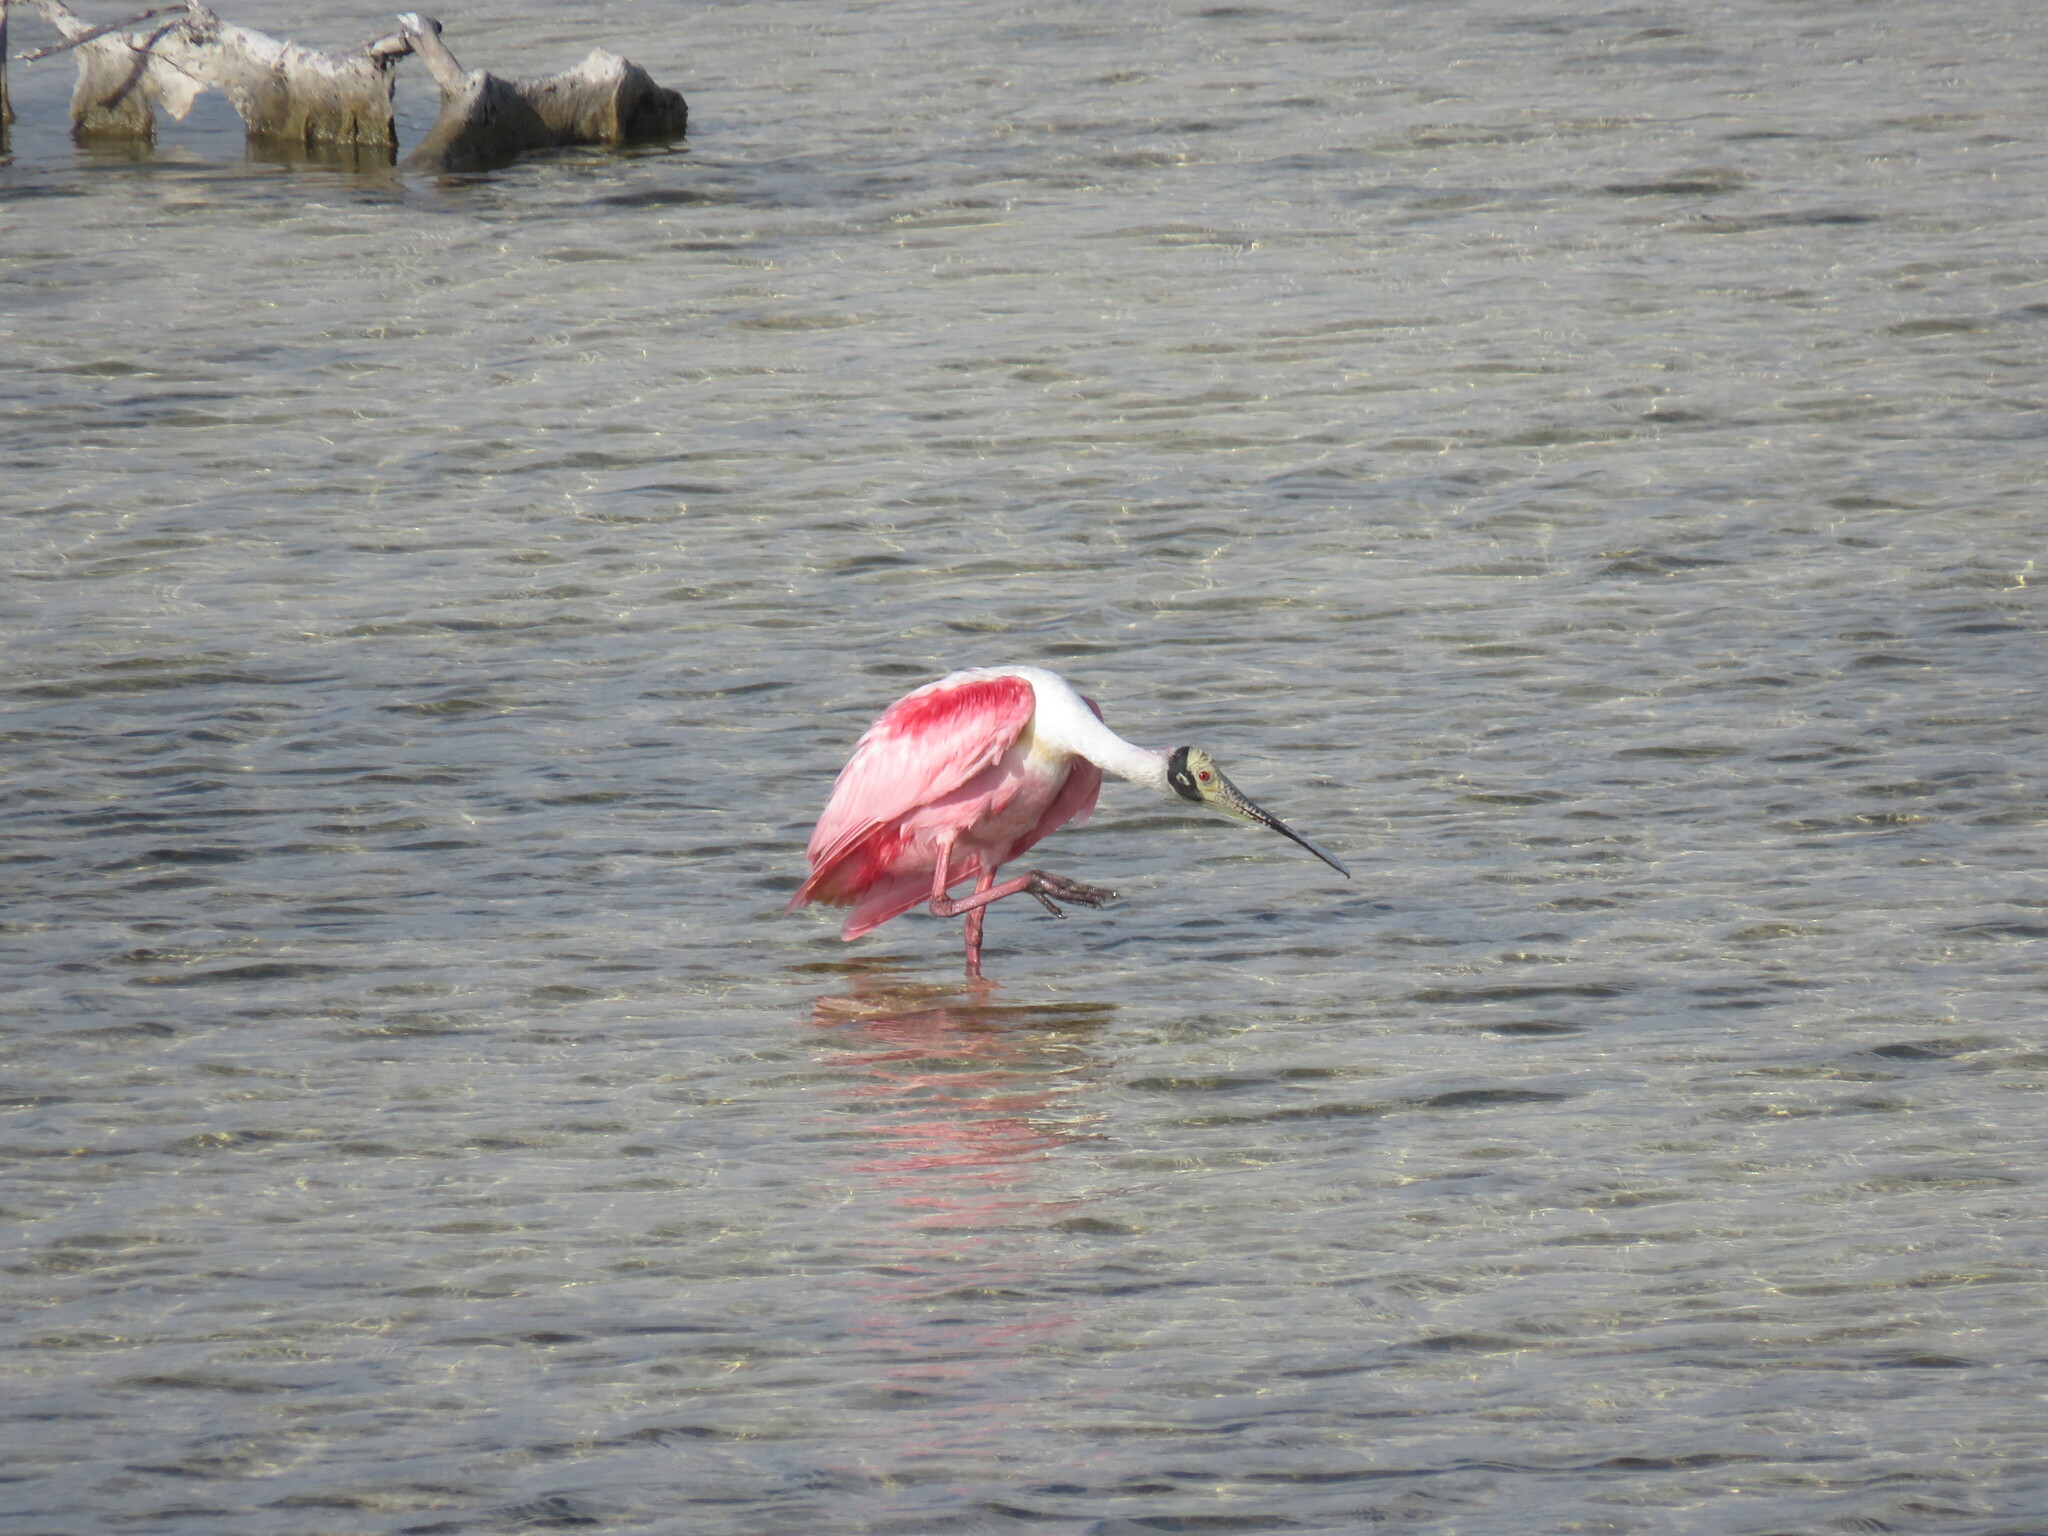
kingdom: Animalia
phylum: Chordata
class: Aves
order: Pelecaniformes
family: Threskiornithidae
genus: Platalea
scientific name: Platalea ajaja
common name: Roseate spoonbill
